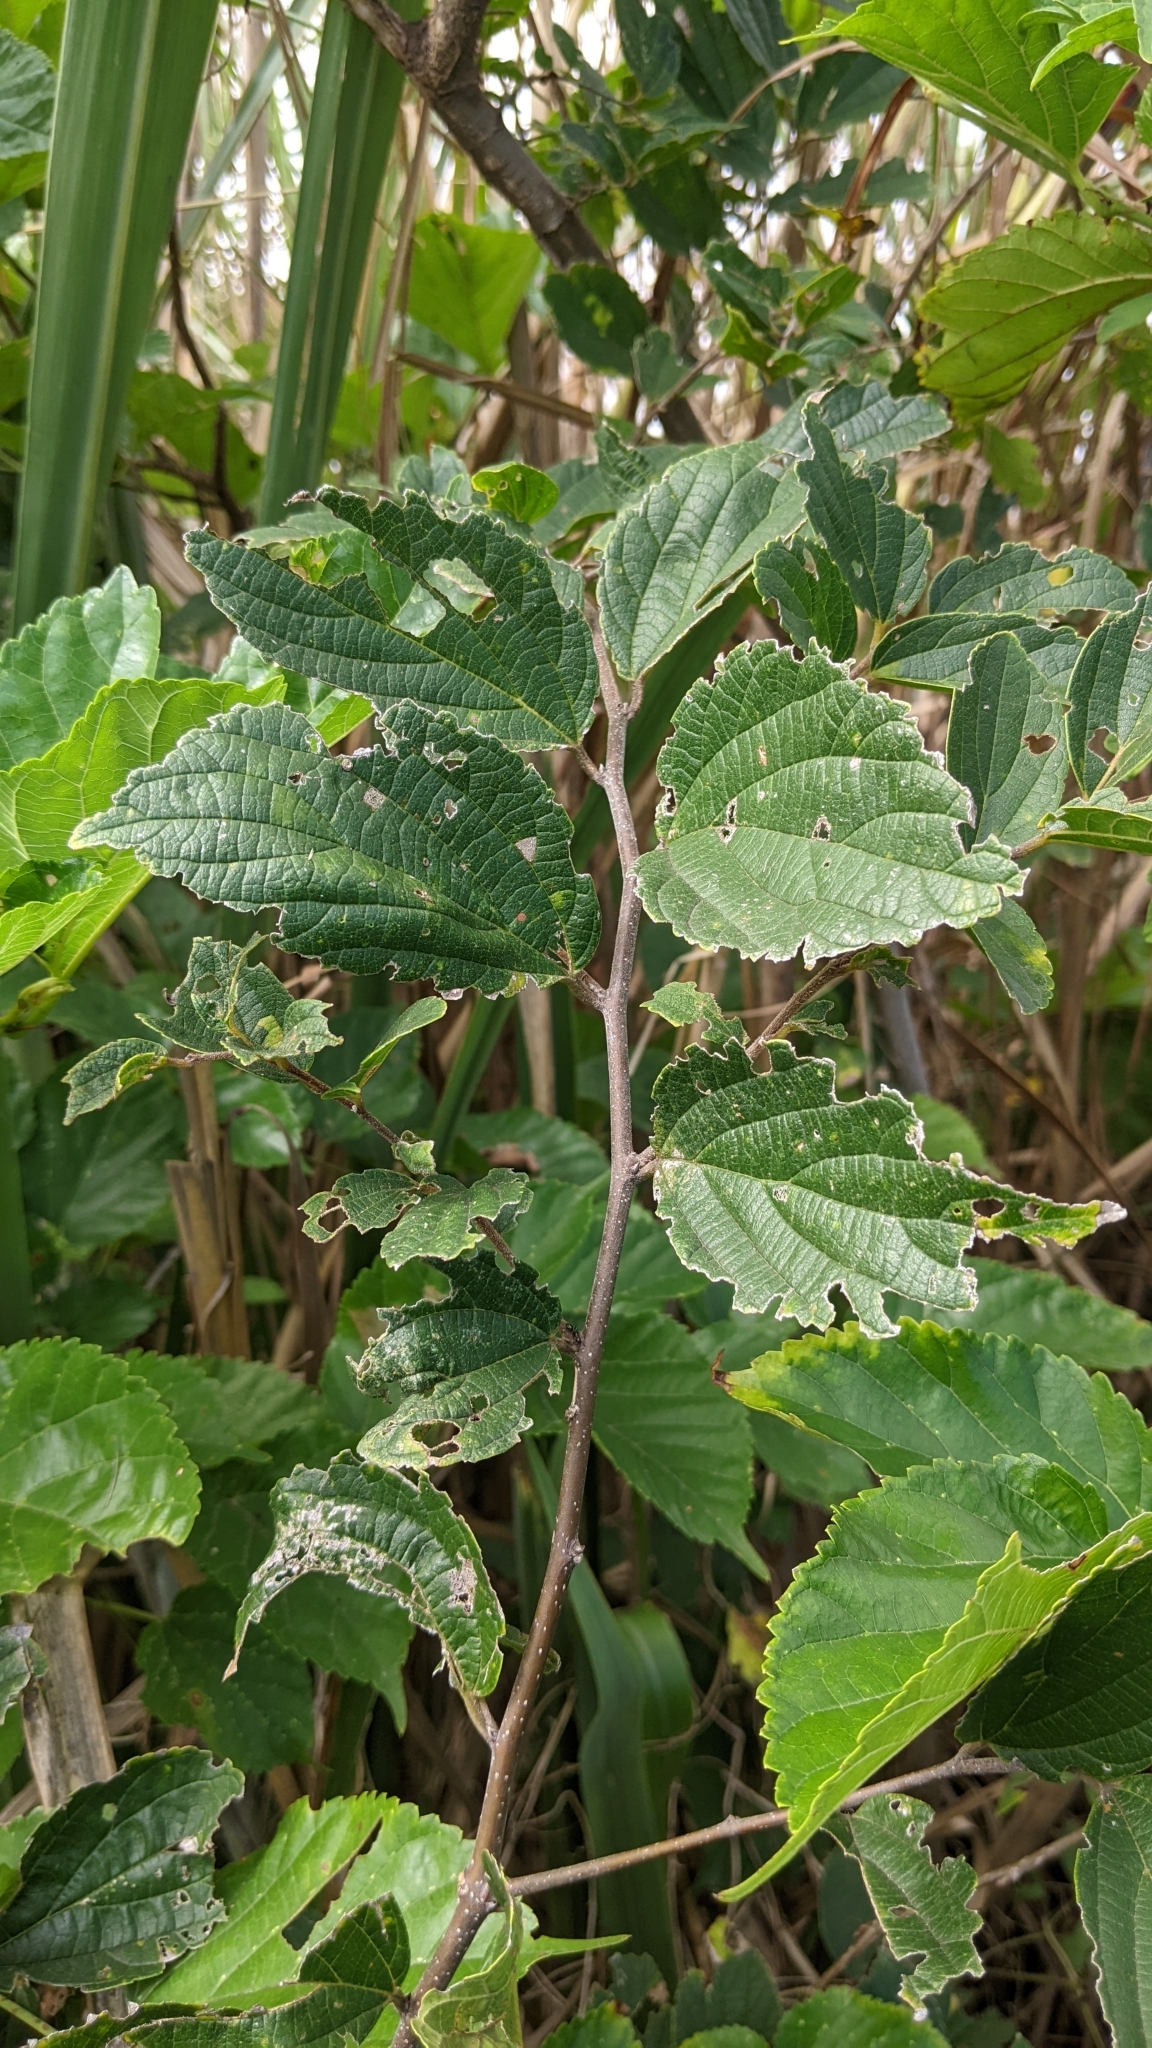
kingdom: Plantae
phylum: Tracheophyta
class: Magnoliopsida
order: Rosales
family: Cannabaceae
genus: Celtis
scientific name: Celtis sinensis
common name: Chinese hackberry
